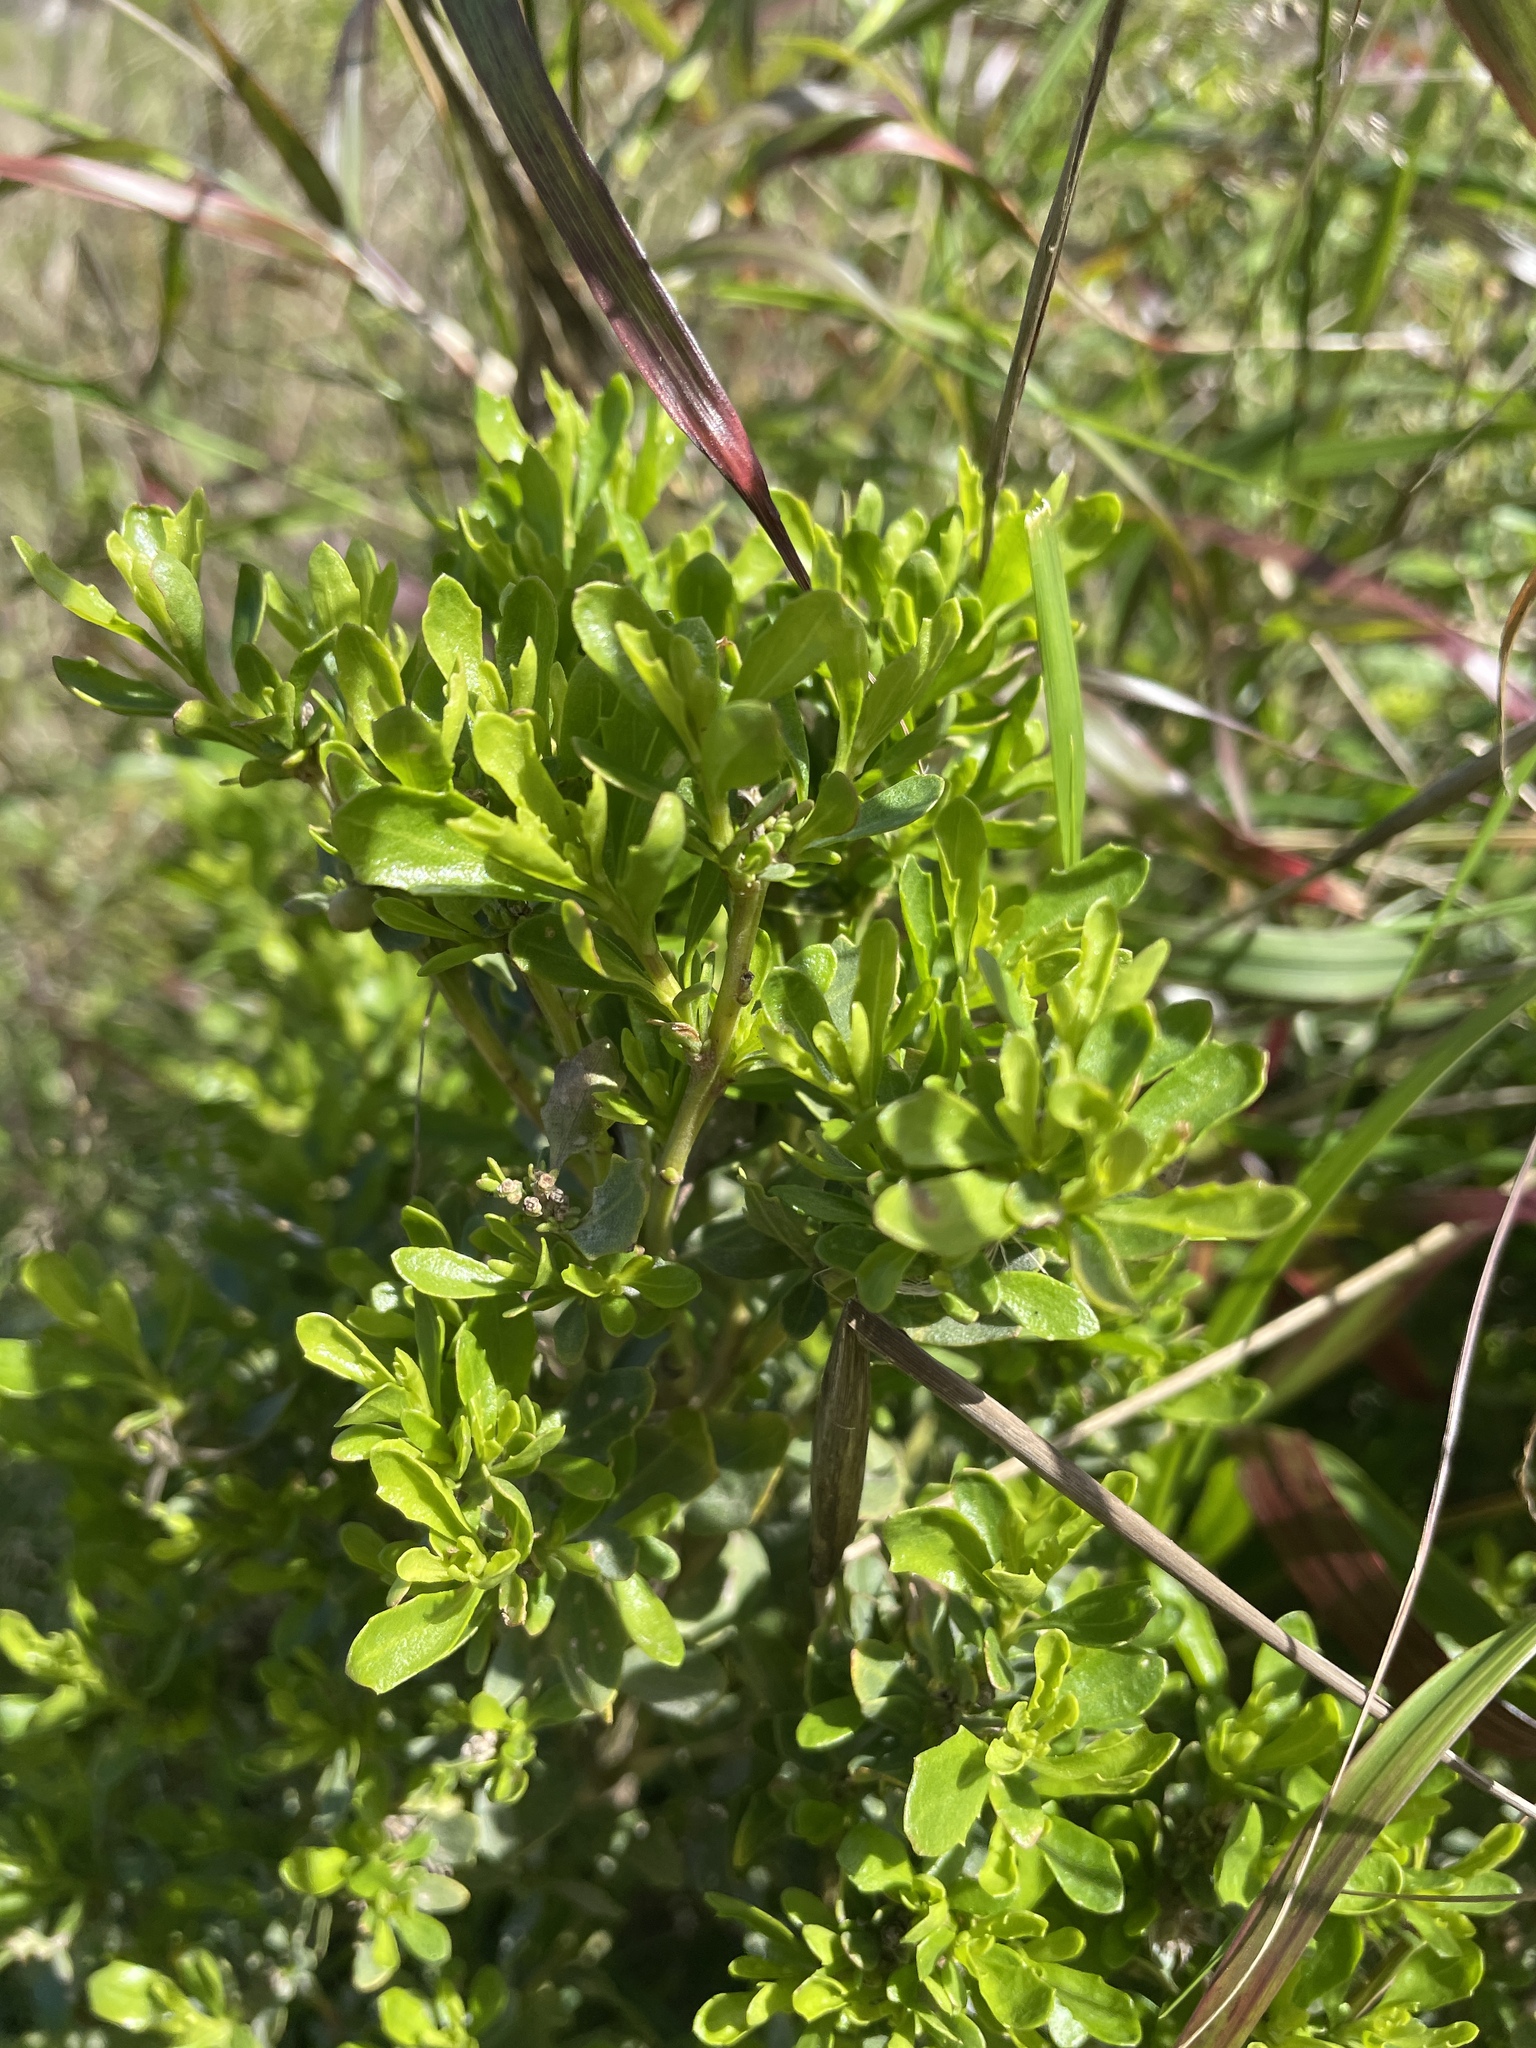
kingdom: Plantae
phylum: Tracheophyta
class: Magnoliopsida
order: Asterales
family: Asteraceae
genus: Baccharis
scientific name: Baccharis pilularis
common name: Coyotebrush
